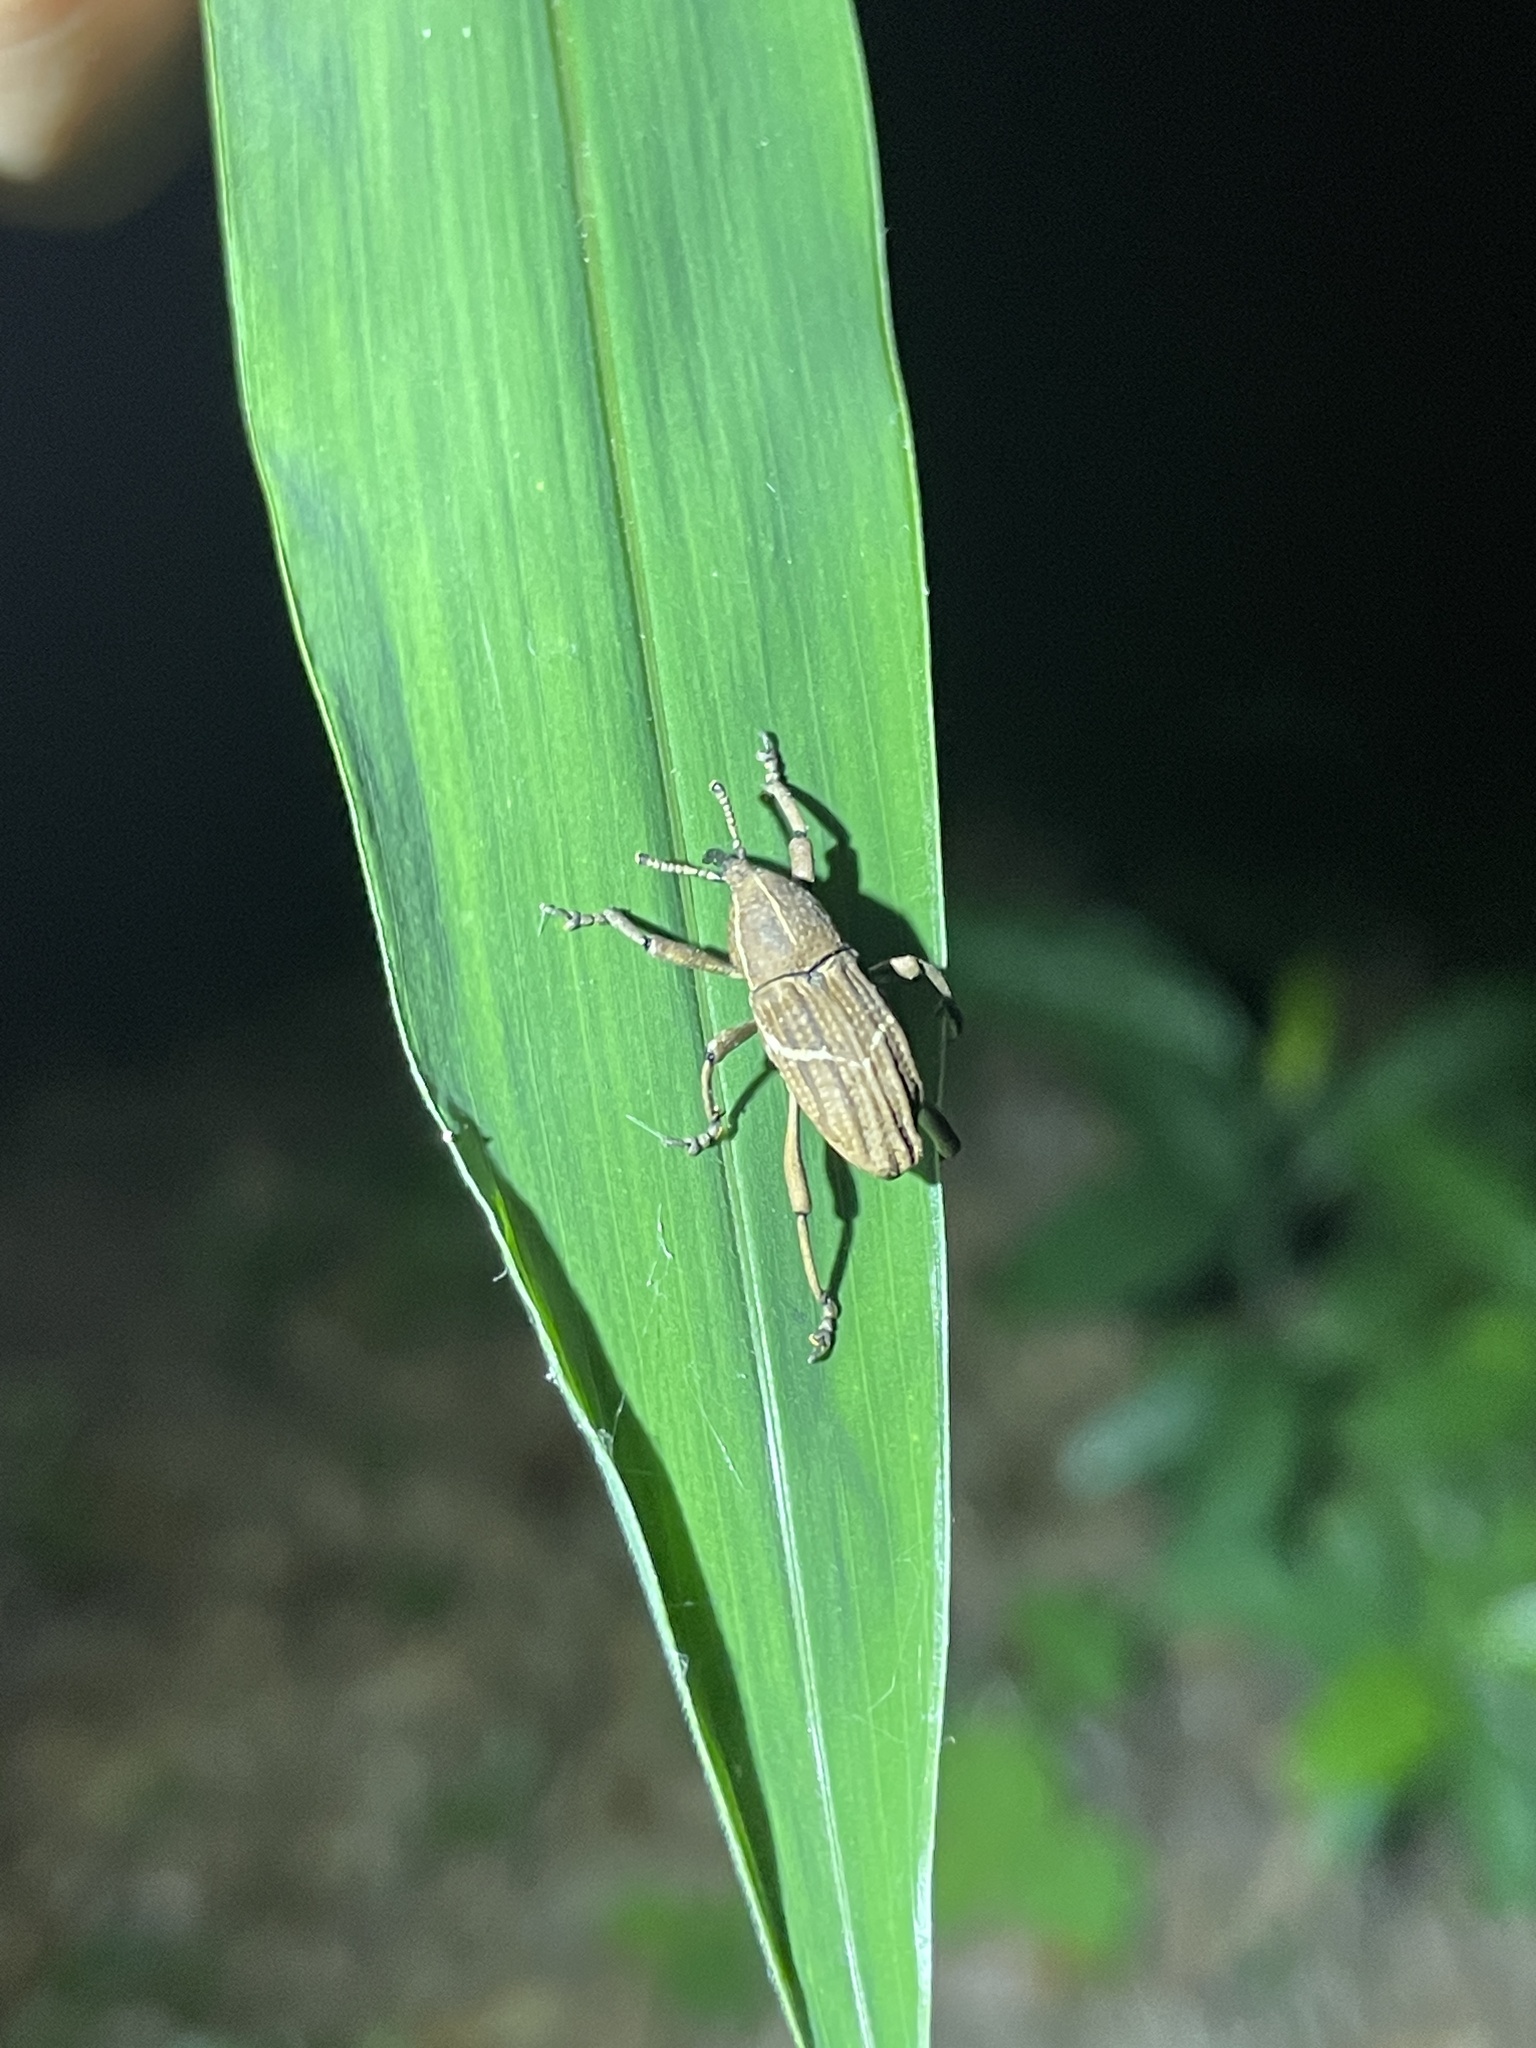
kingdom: Animalia
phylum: Arthropoda
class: Insecta
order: Coleoptera
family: Dryophthoridae
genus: Cryptoderma
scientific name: Cryptoderma fortunei
